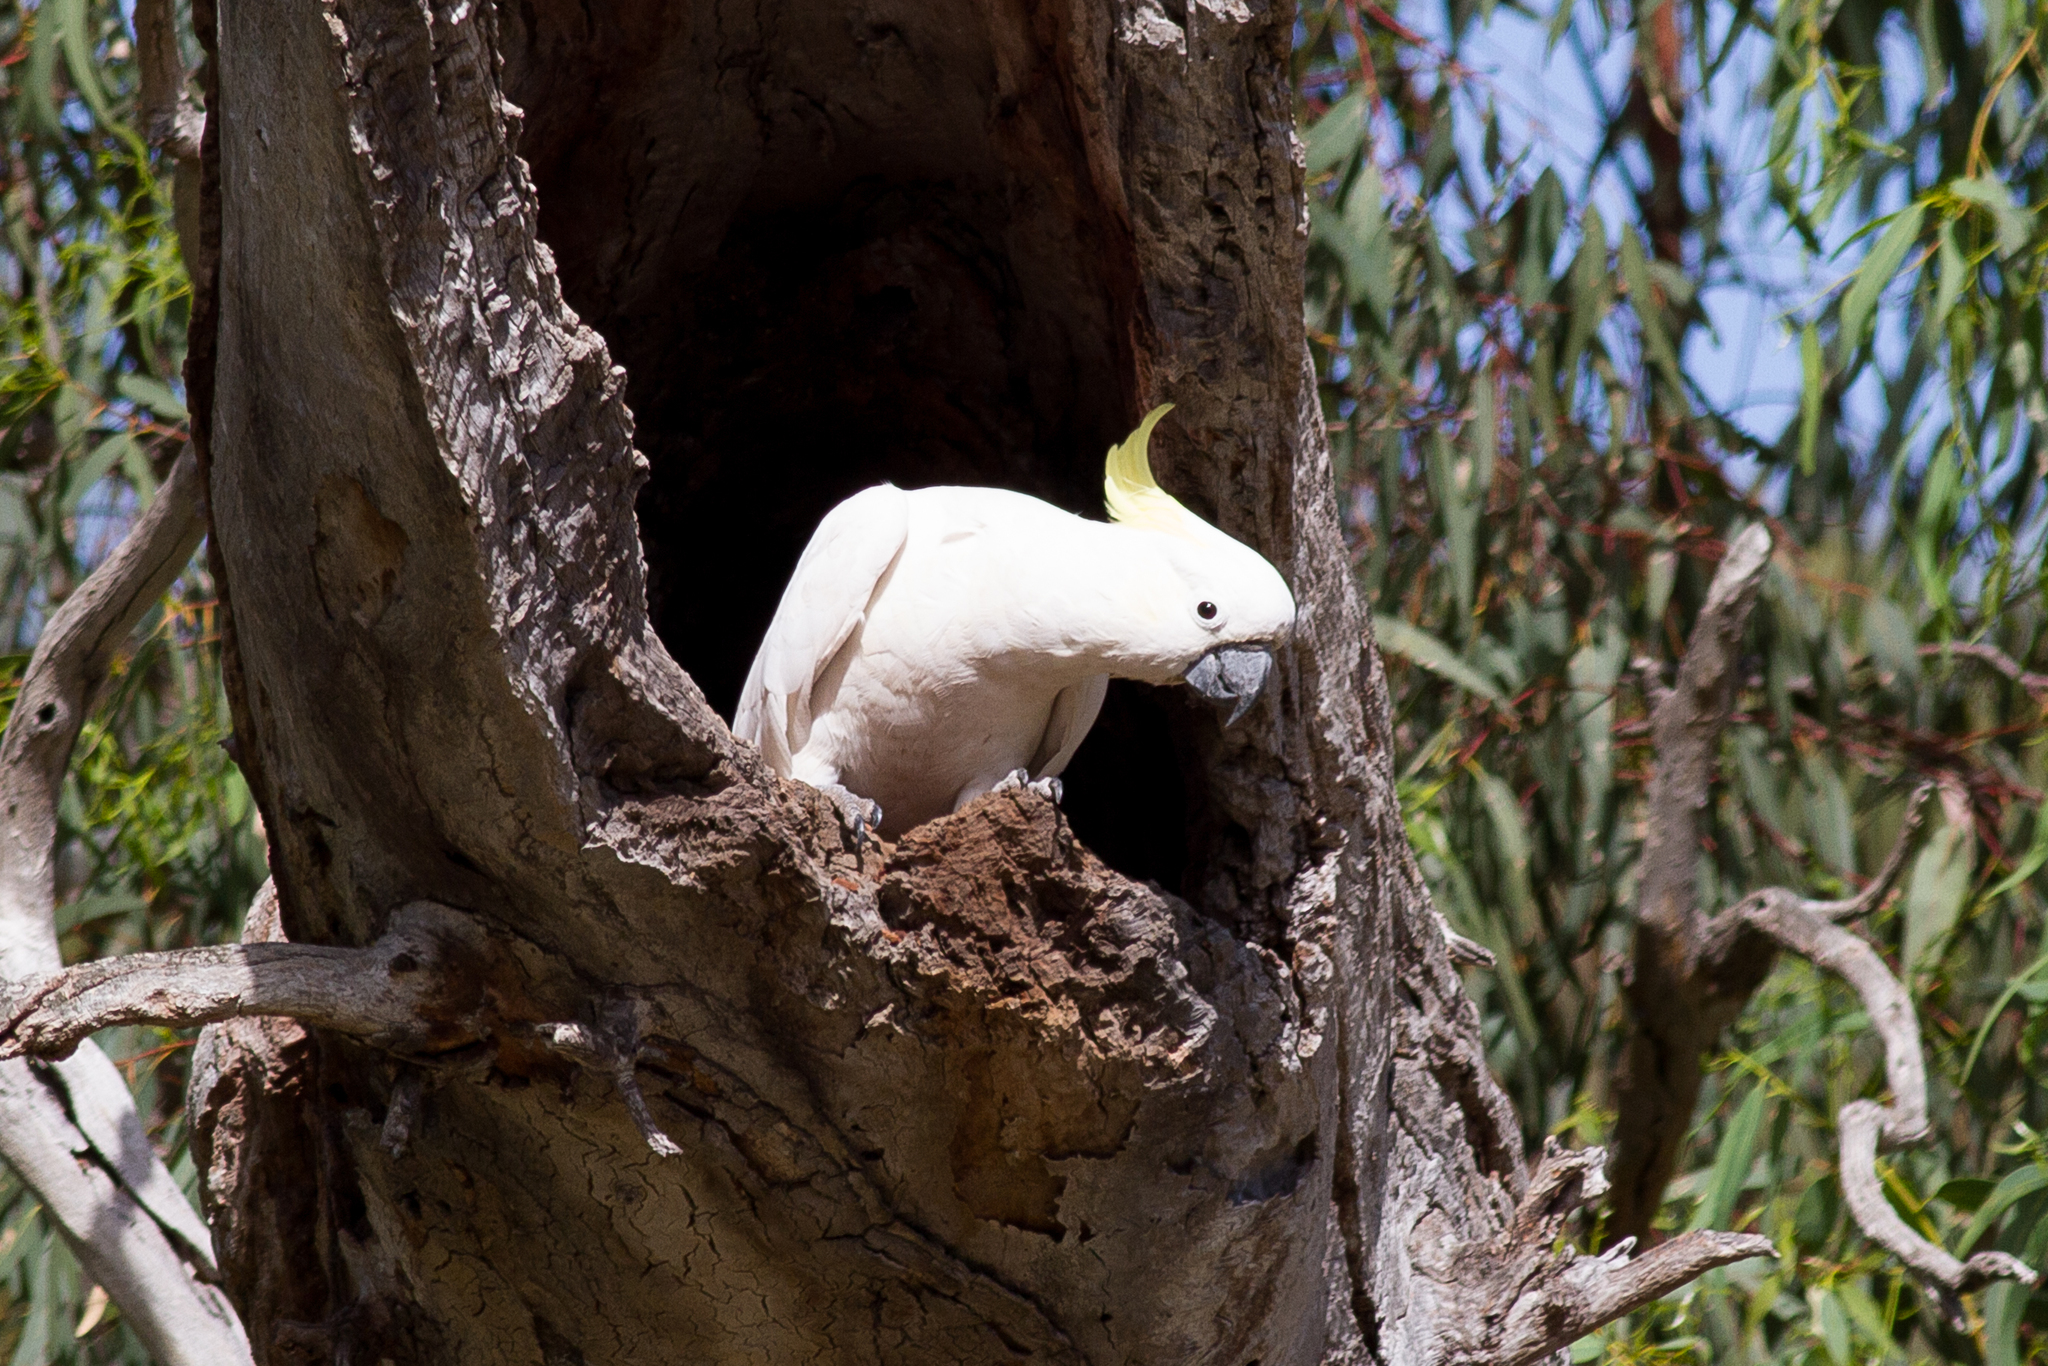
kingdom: Animalia
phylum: Chordata
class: Aves
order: Psittaciformes
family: Psittacidae
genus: Cacatua
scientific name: Cacatua galerita
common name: Sulphur-crested cockatoo
